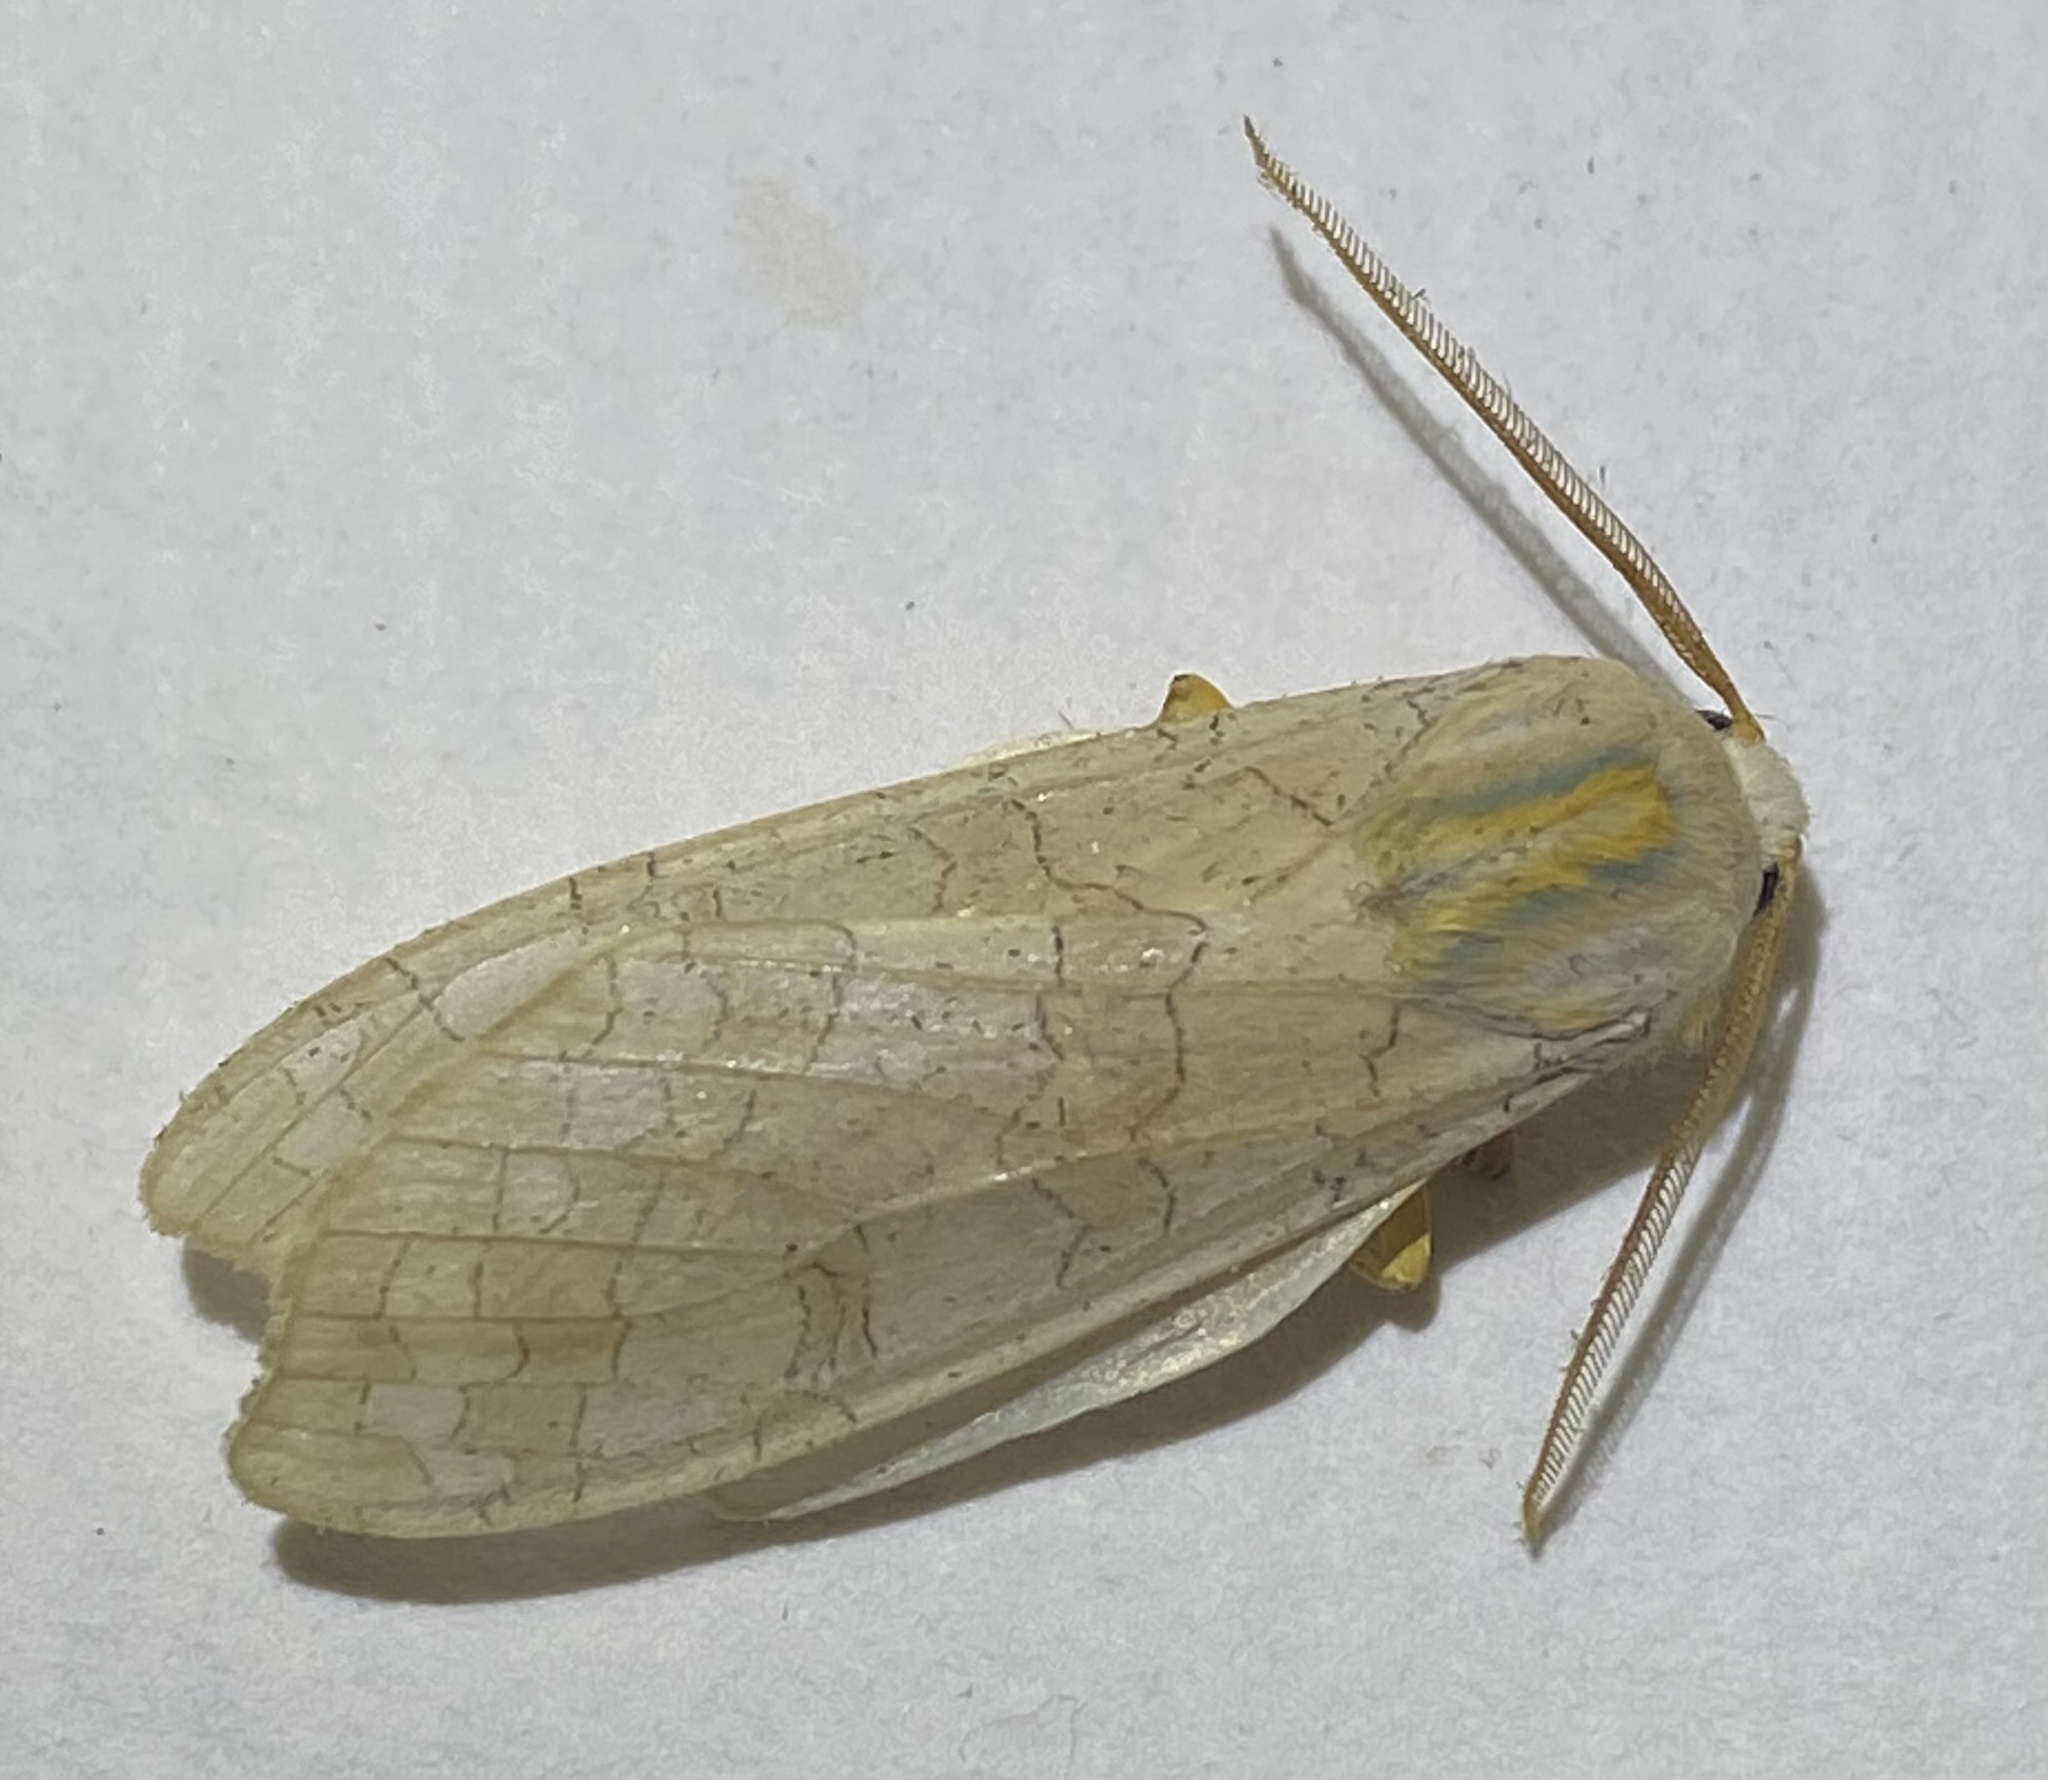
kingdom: Animalia
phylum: Arthropoda
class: Insecta
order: Lepidoptera
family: Erebidae
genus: Halysidota
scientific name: Halysidota
